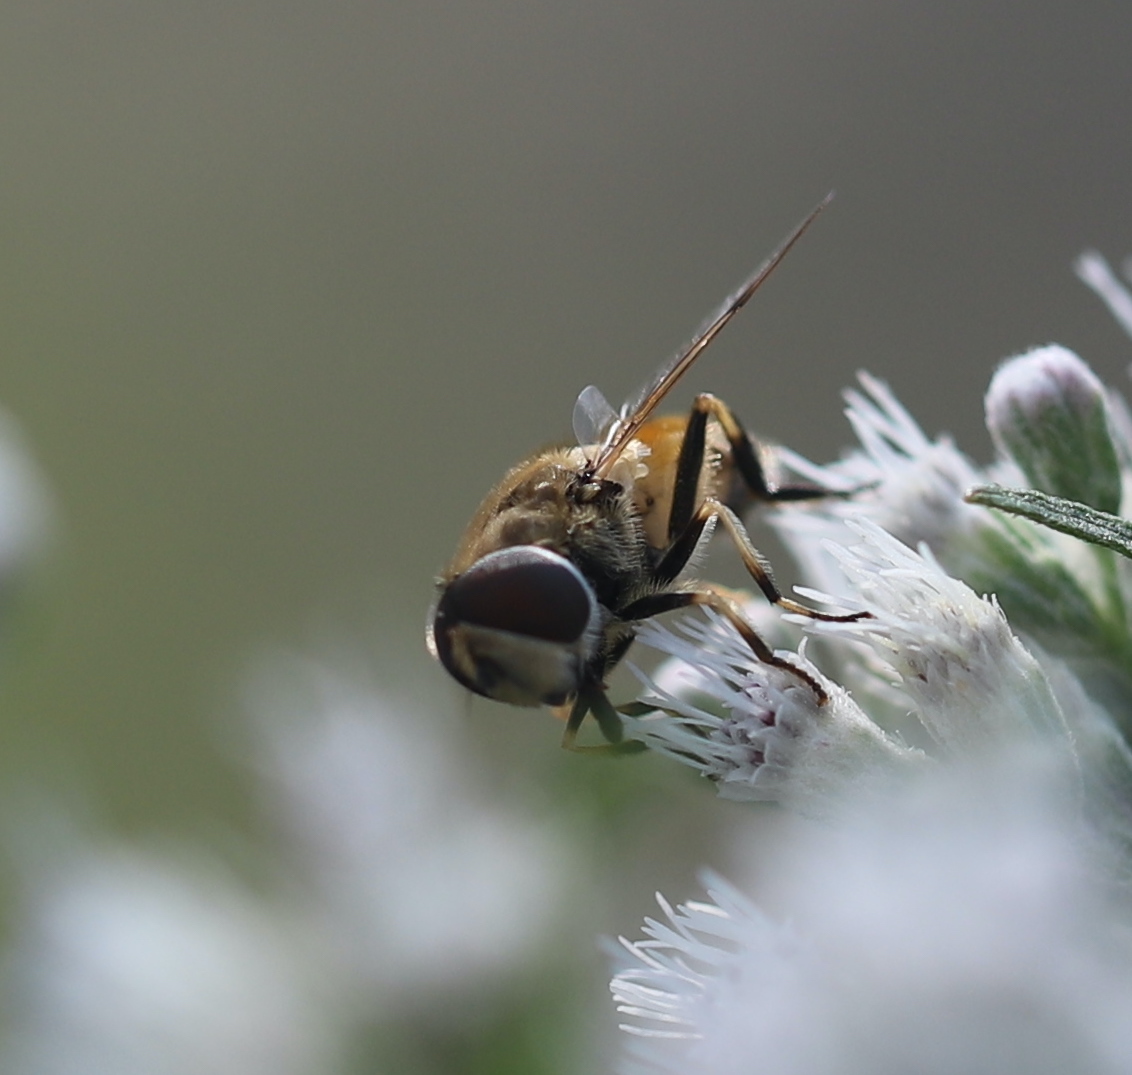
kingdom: Animalia
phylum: Arthropoda
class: Insecta
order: Diptera
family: Syrphidae
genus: Eristalis
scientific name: Eristalis arbustorum
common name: Hover fly
